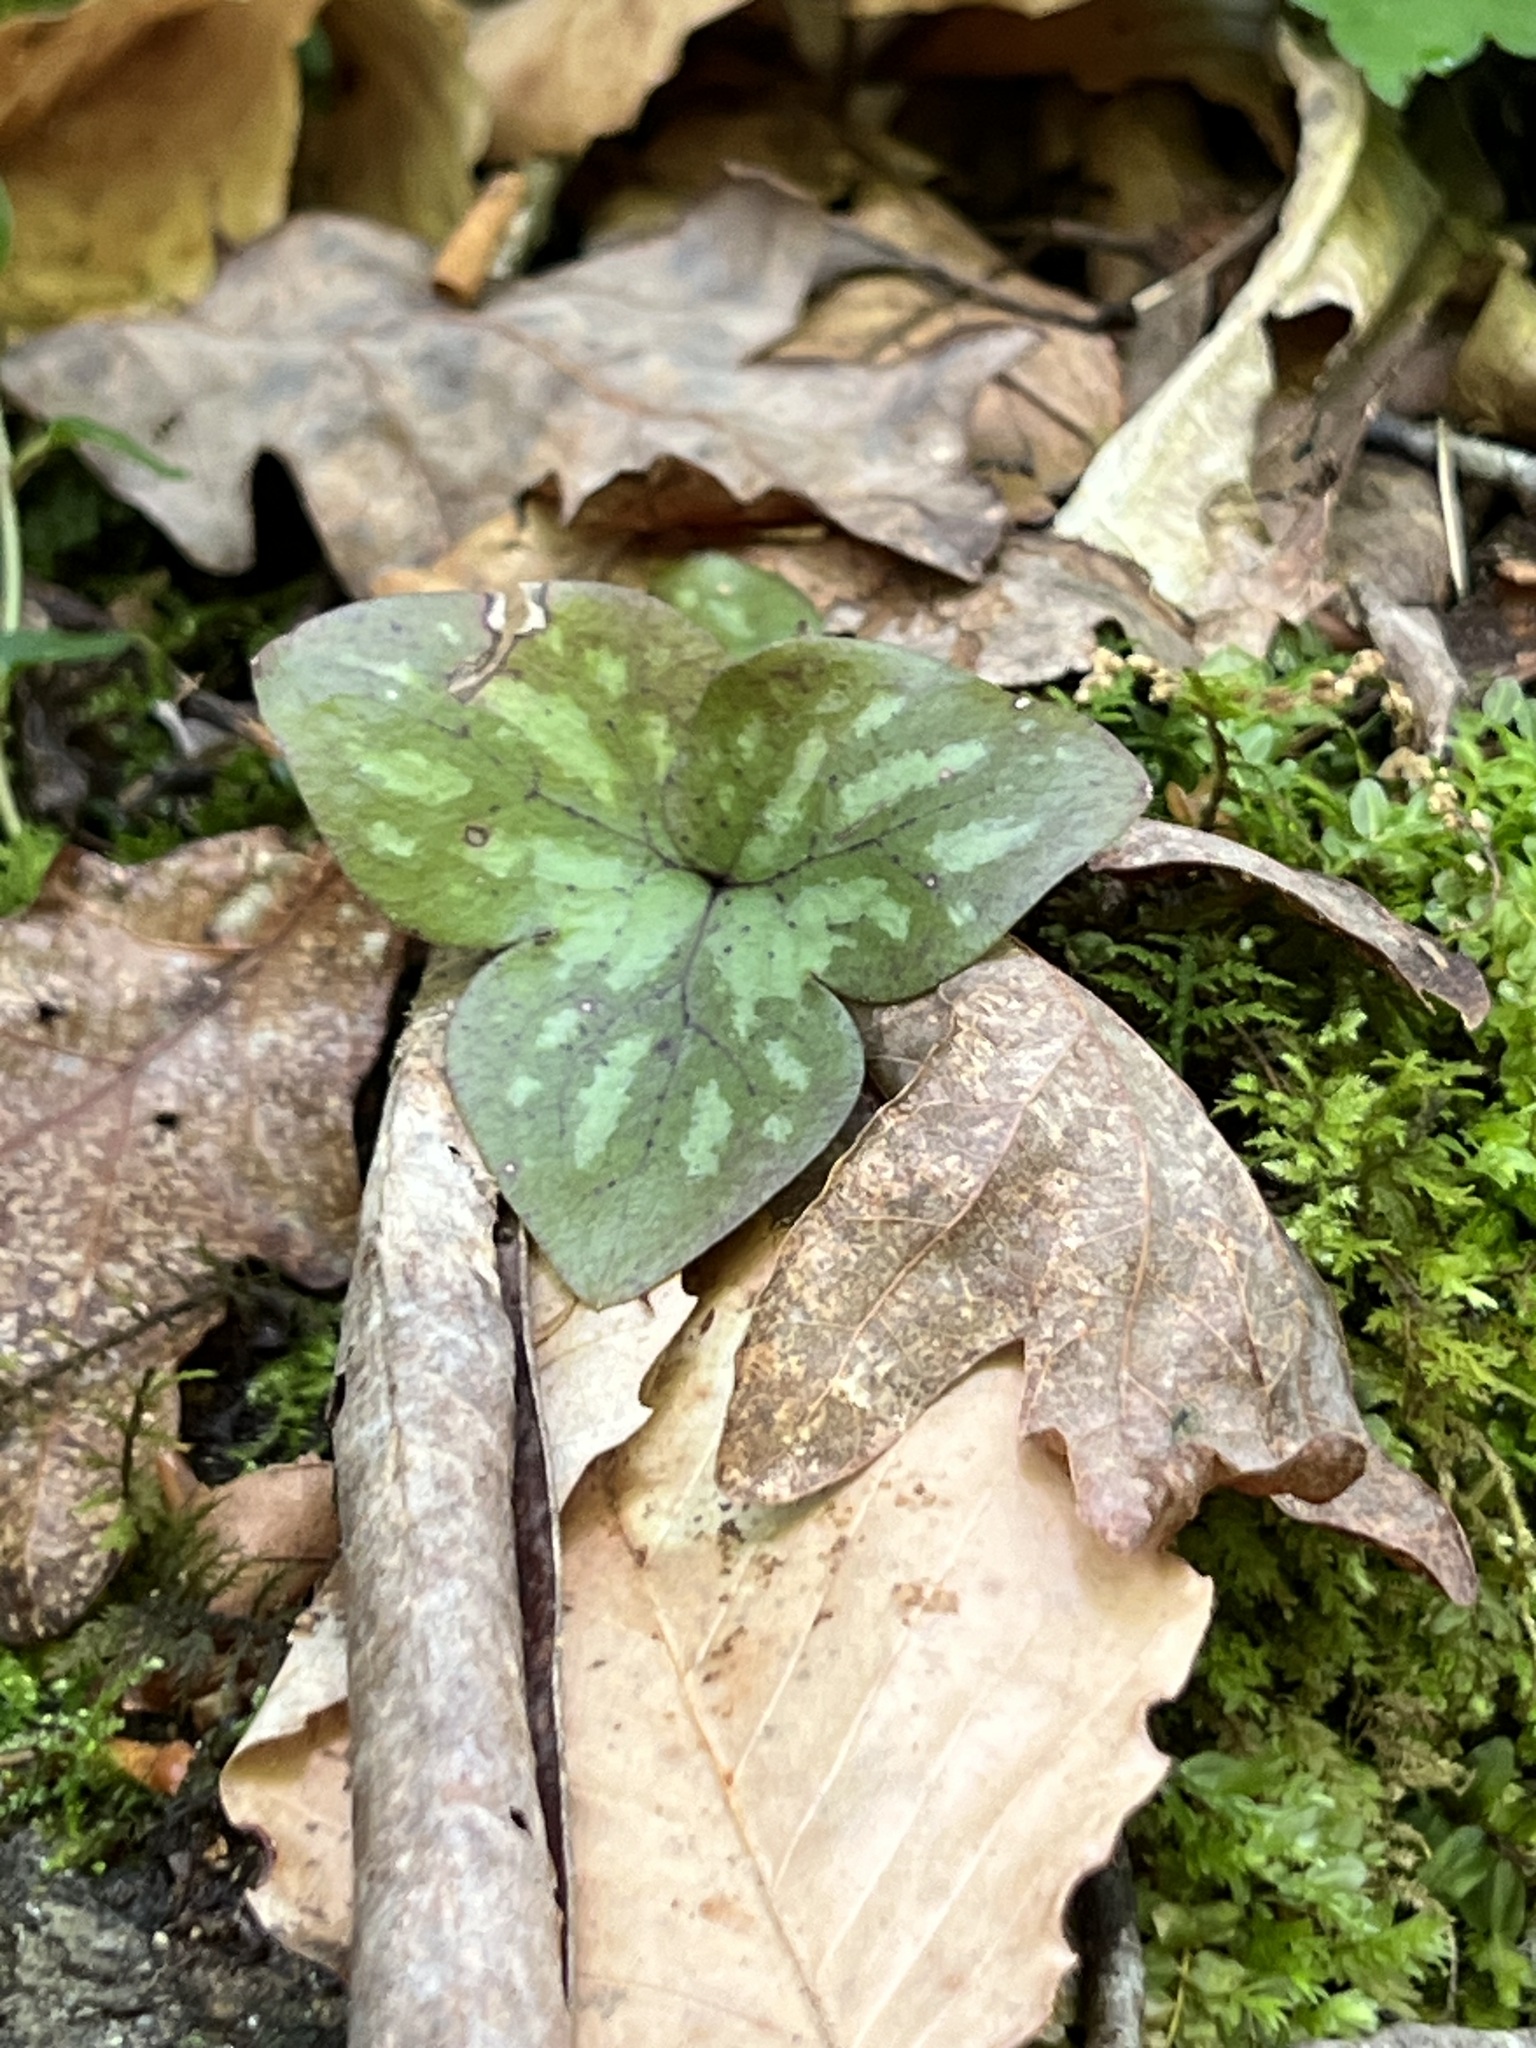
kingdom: Plantae
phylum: Tracheophyta
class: Magnoliopsida
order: Ranunculales
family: Ranunculaceae
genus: Hepatica
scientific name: Hepatica acutiloba
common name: Sharp-lobed hepatica
